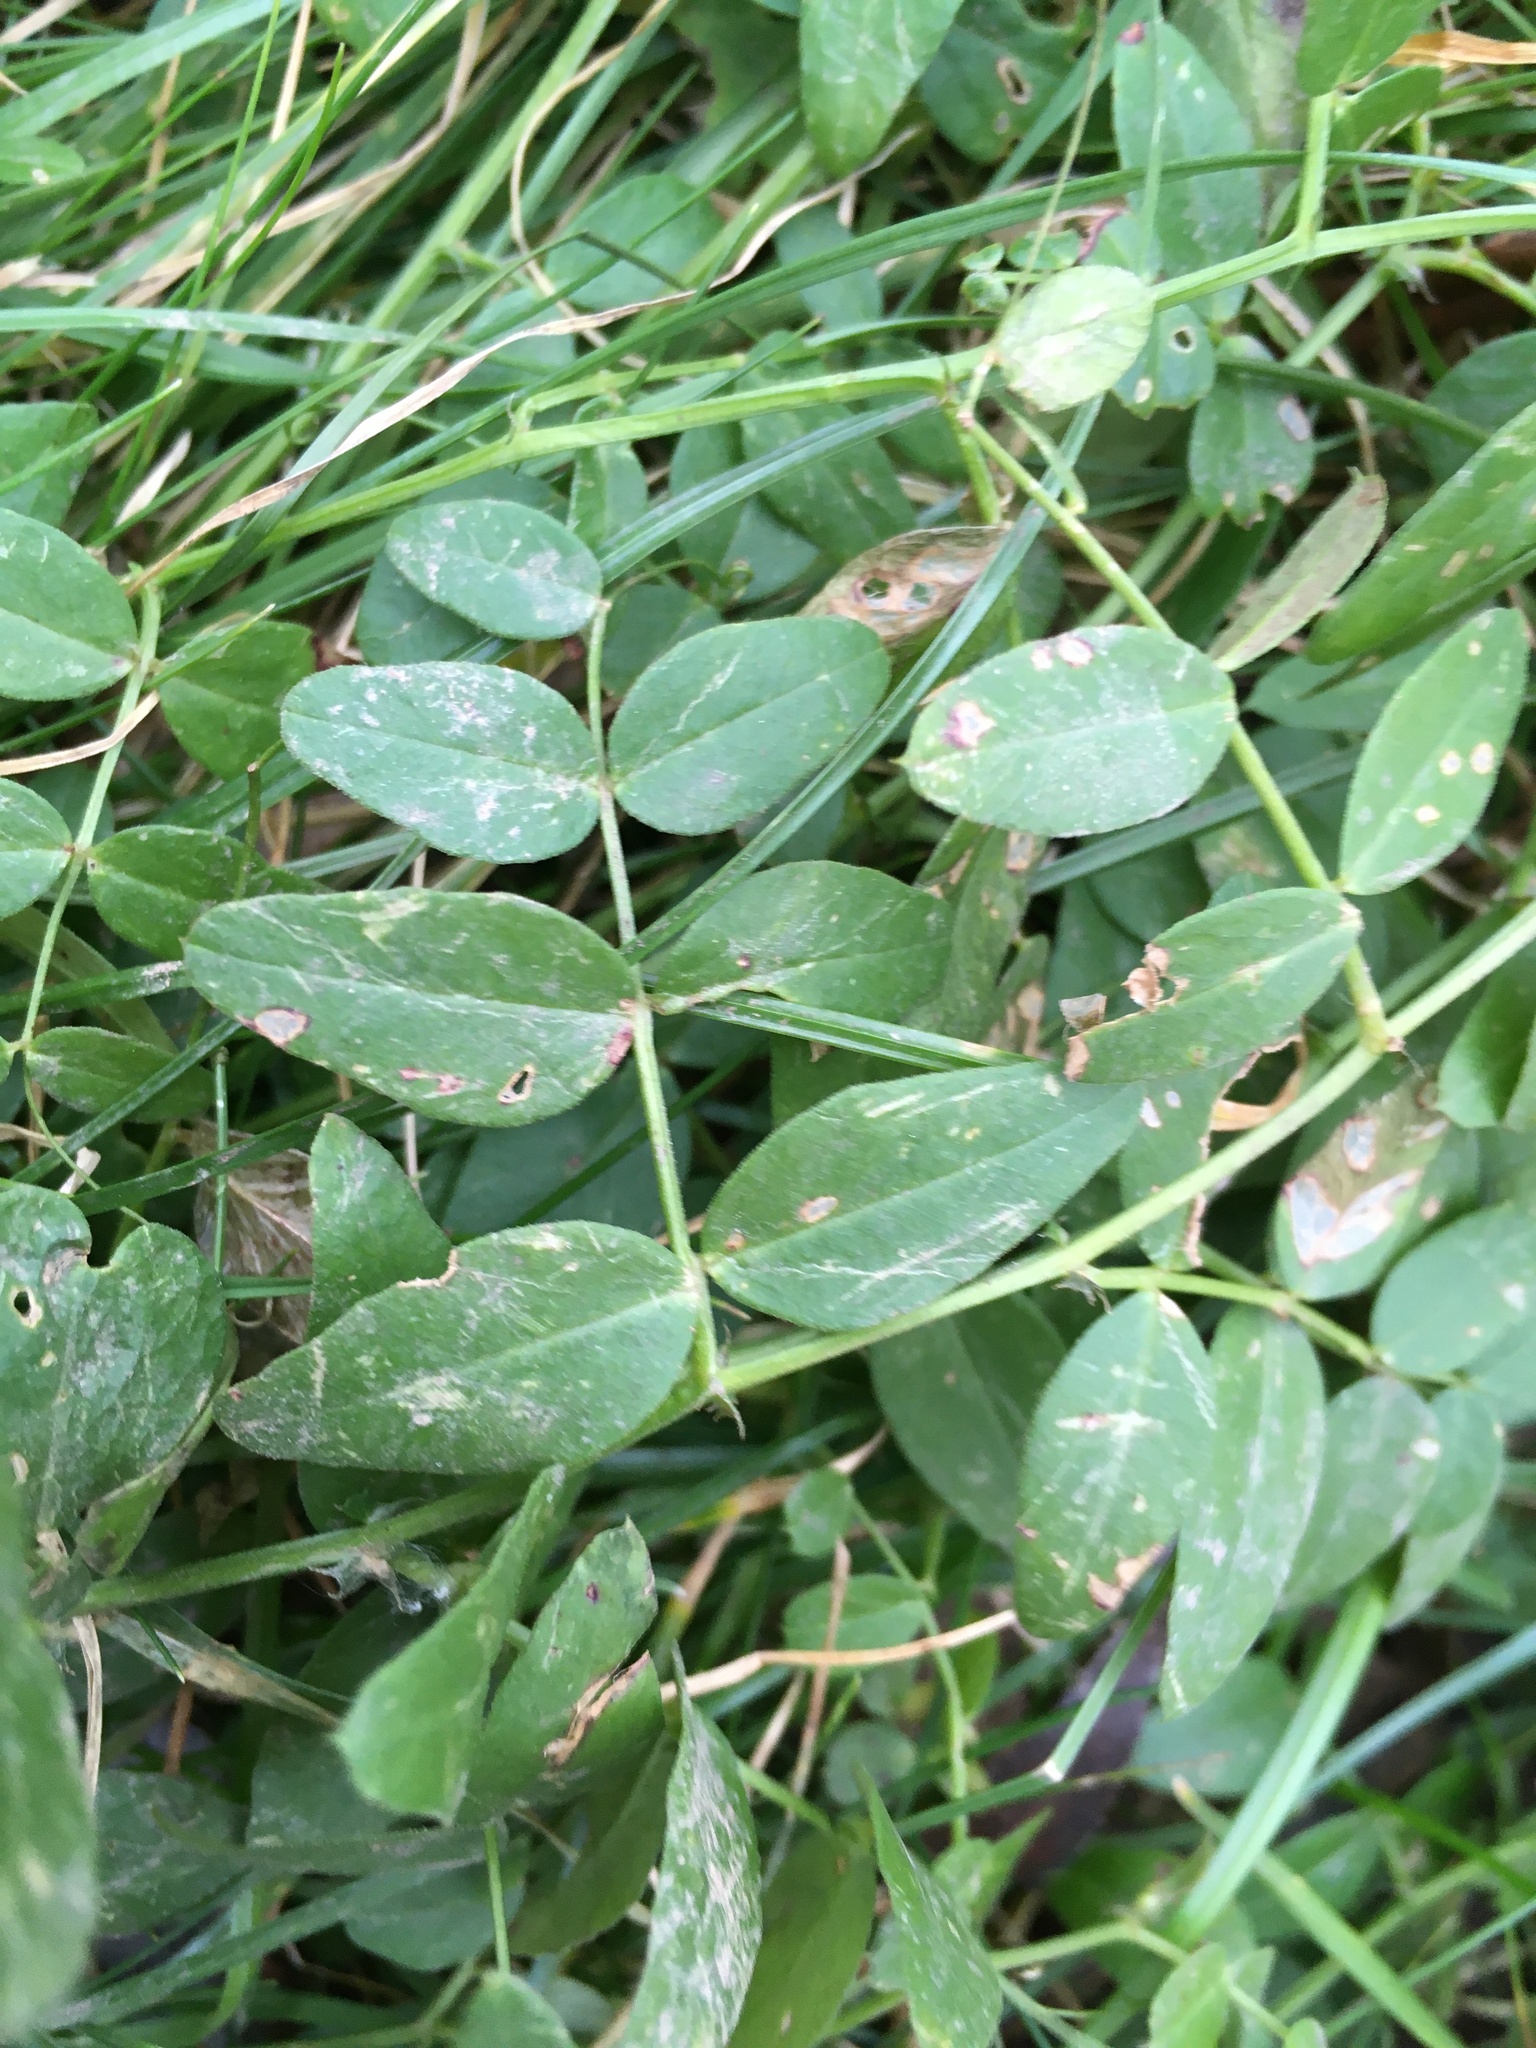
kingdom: Plantae
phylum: Tracheophyta
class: Magnoliopsida
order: Fabales
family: Fabaceae
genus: Vicia
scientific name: Vicia sepium
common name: Bush vetch
